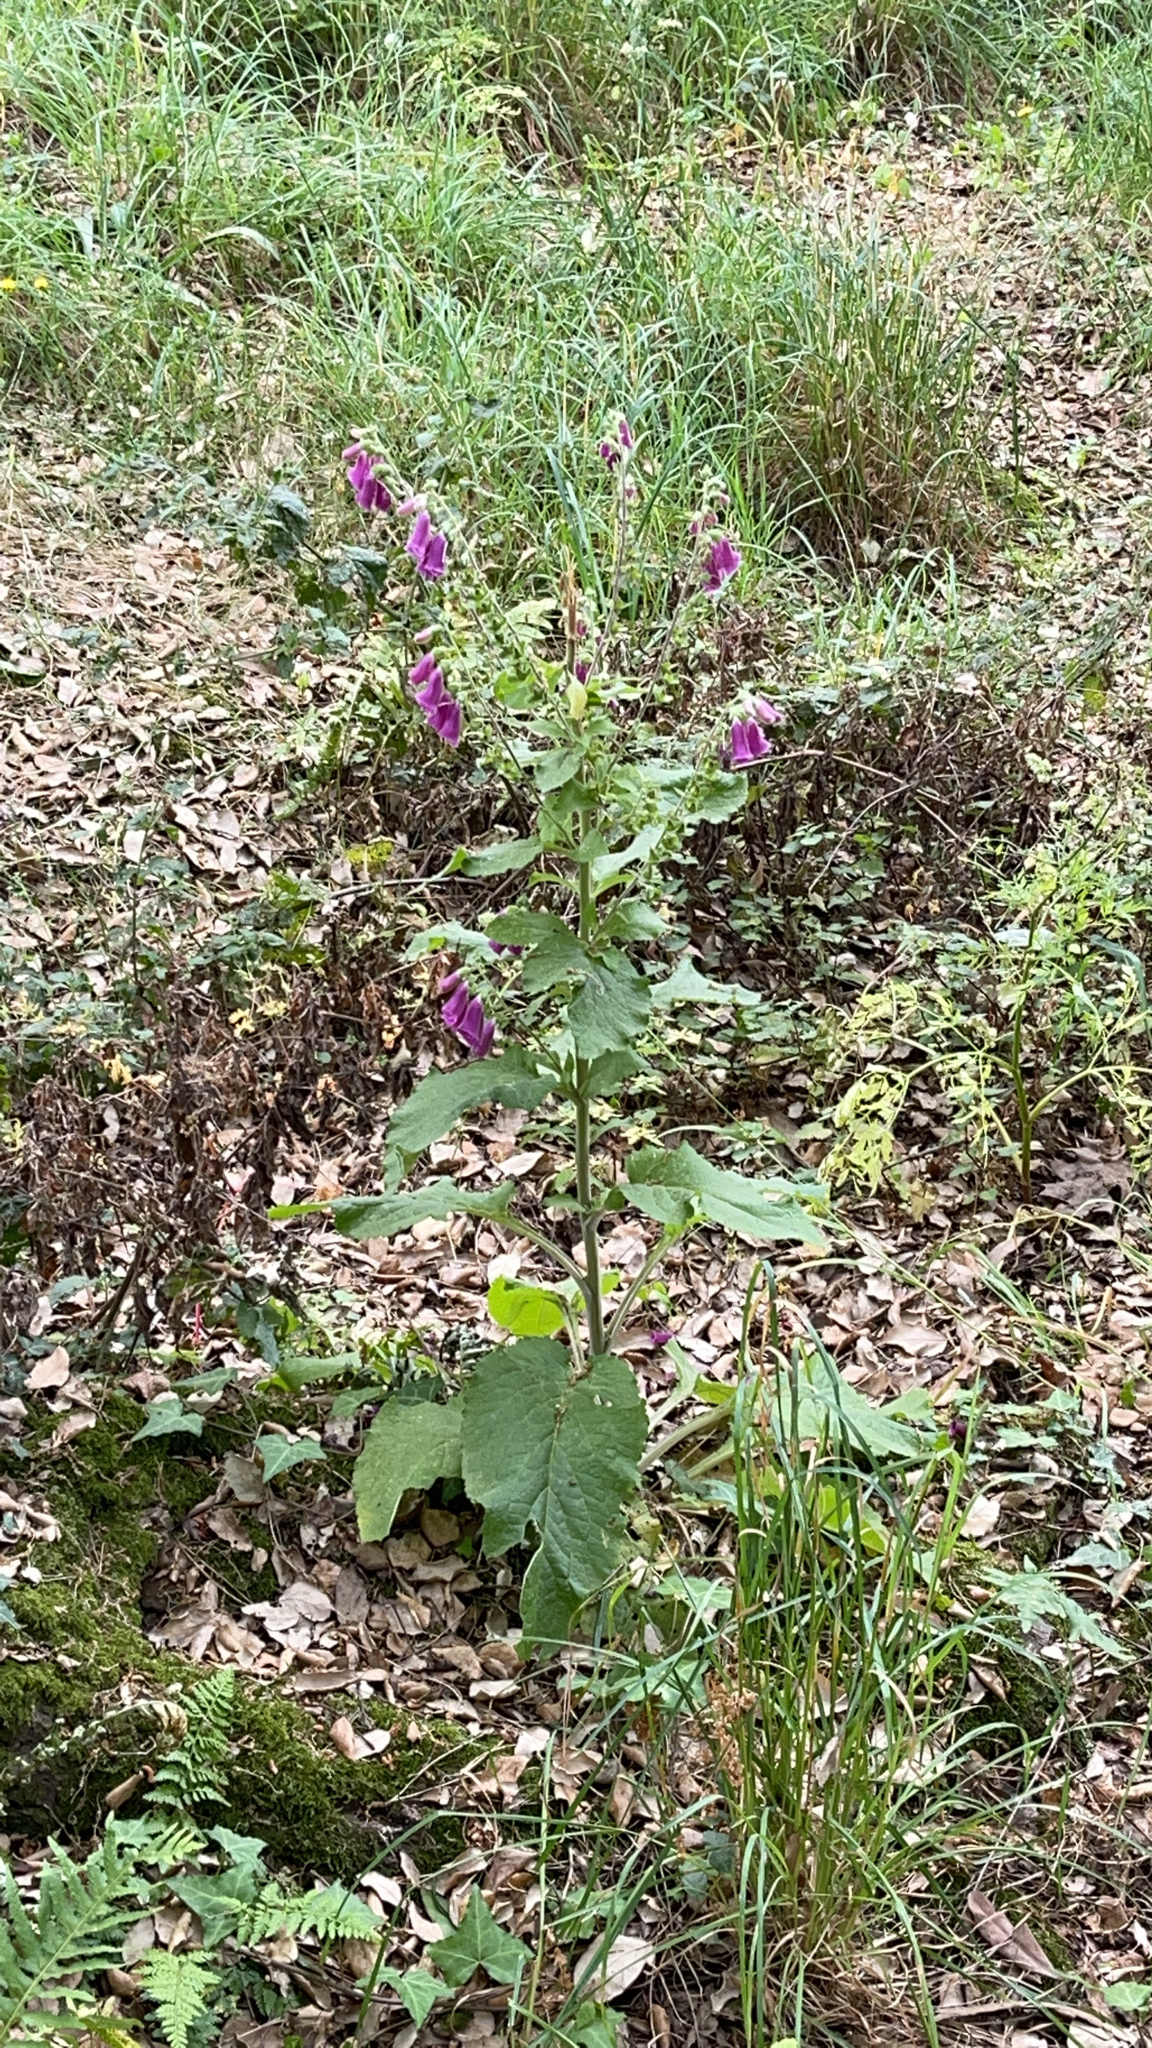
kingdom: Plantae
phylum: Tracheophyta
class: Magnoliopsida
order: Lamiales
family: Plantaginaceae
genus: Digitalis
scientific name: Digitalis purpurea
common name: Foxglove
